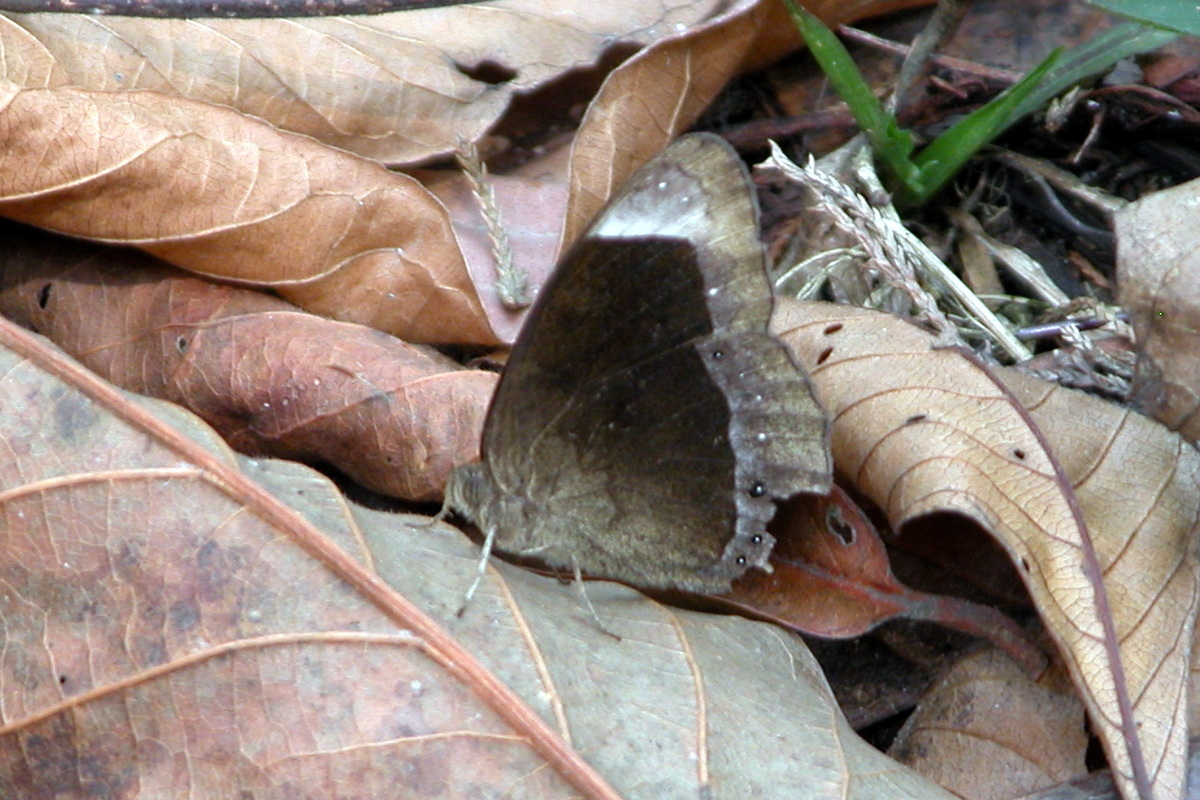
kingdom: Animalia
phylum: Arthropoda
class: Insecta
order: Lepidoptera
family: Nymphalidae
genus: Mycalesis
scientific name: Mycalesis anaxias
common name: White-bar bushbrown
